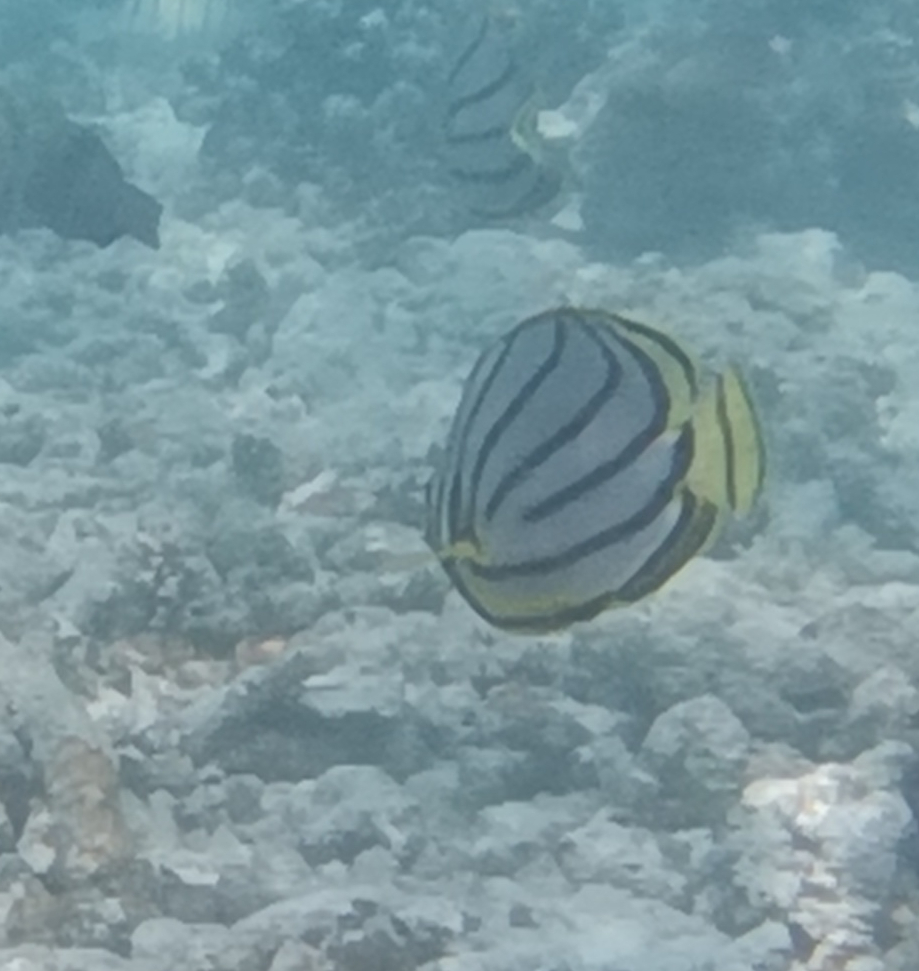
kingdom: Animalia
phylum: Chordata
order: Perciformes
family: Chaetodontidae
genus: Chaetodon
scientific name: Chaetodon meyeri
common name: Meyer's butterflyfish
